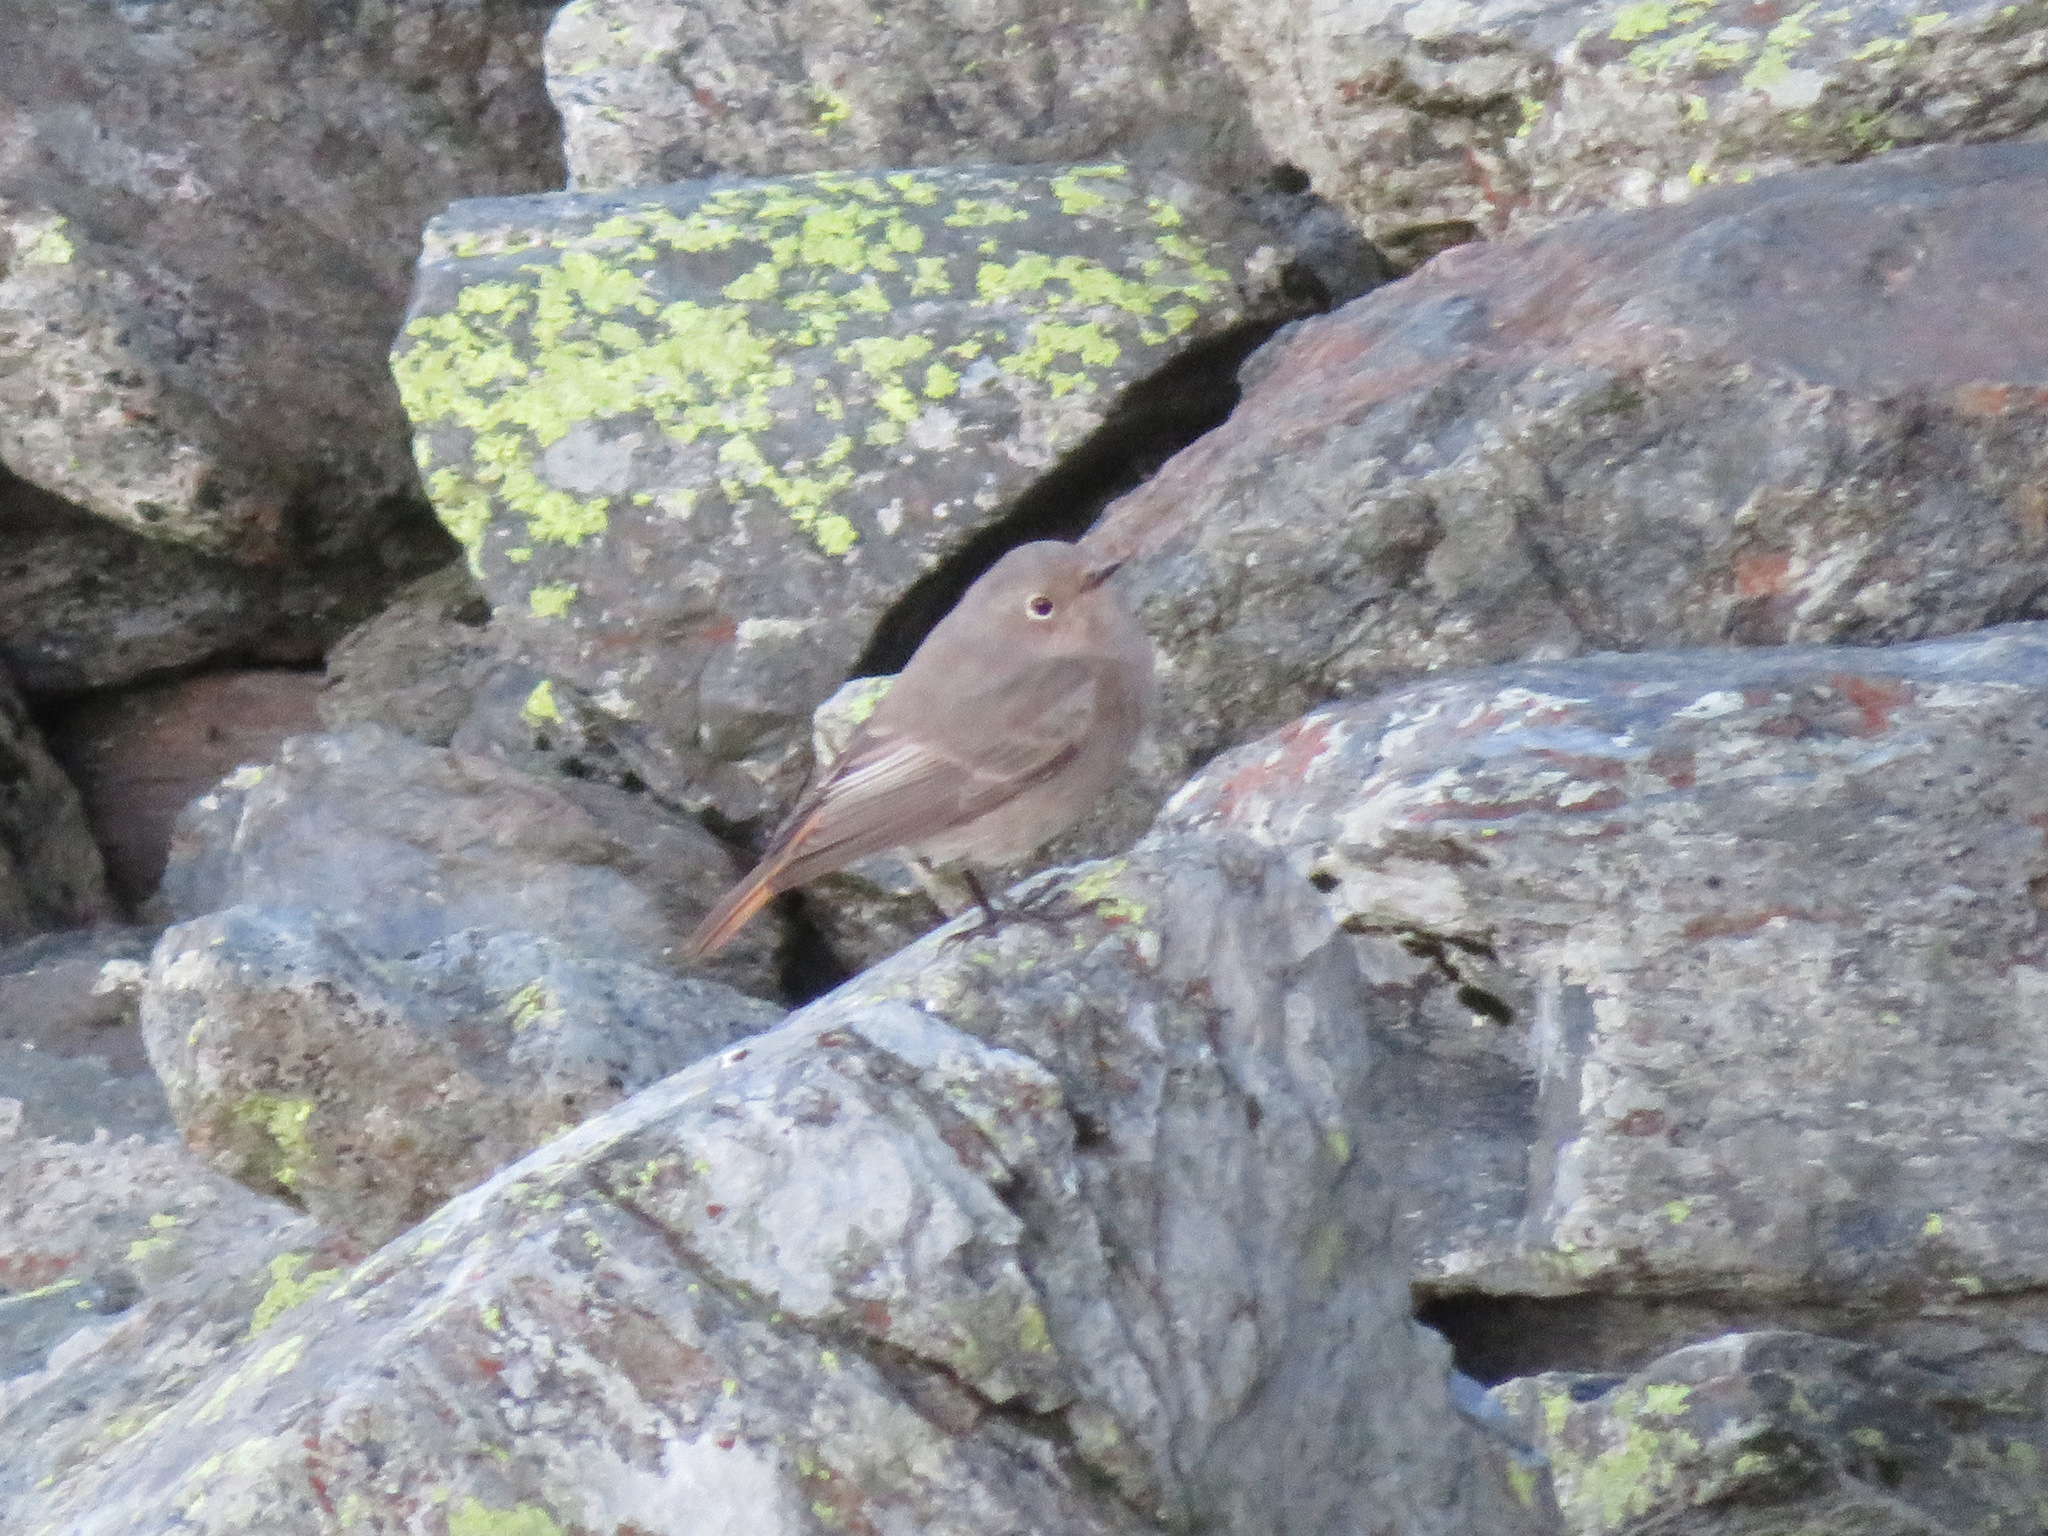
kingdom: Animalia
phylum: Chordata
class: Aves
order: Passeriformes
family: Muscicapidae
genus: Phoenicurus
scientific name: Phoenicurus ochruros
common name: Black redstart
